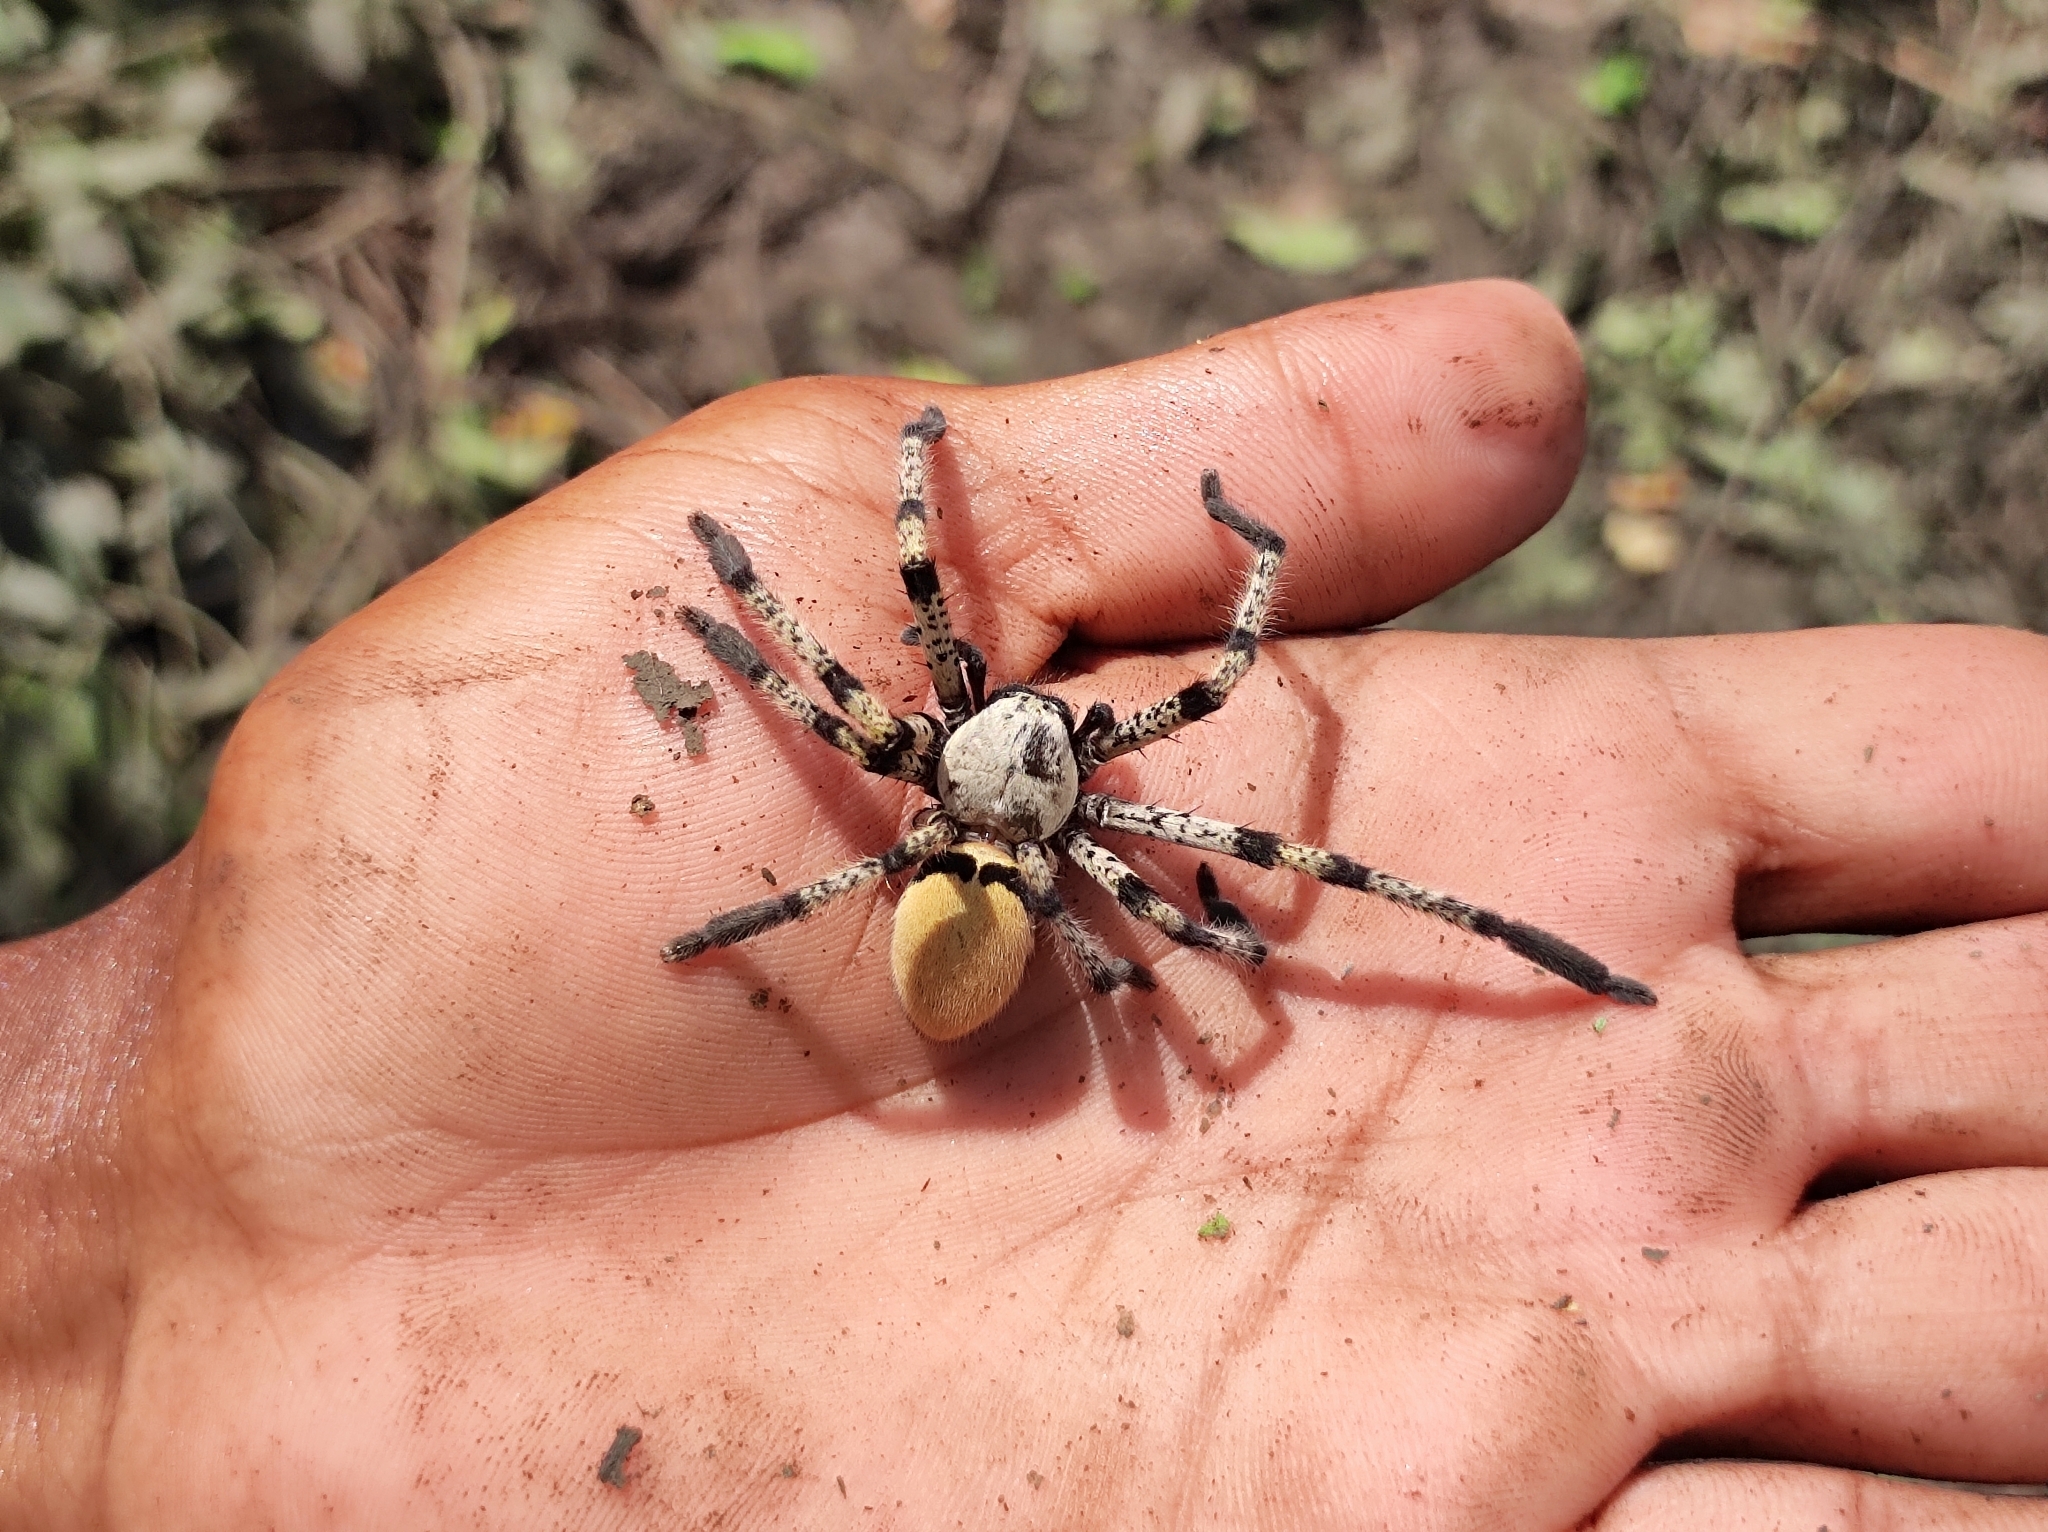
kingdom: Animalia
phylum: Arthropoda
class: Arachnida
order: Araneae
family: Sparassidae
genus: Olios
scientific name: Olios lamarcki
